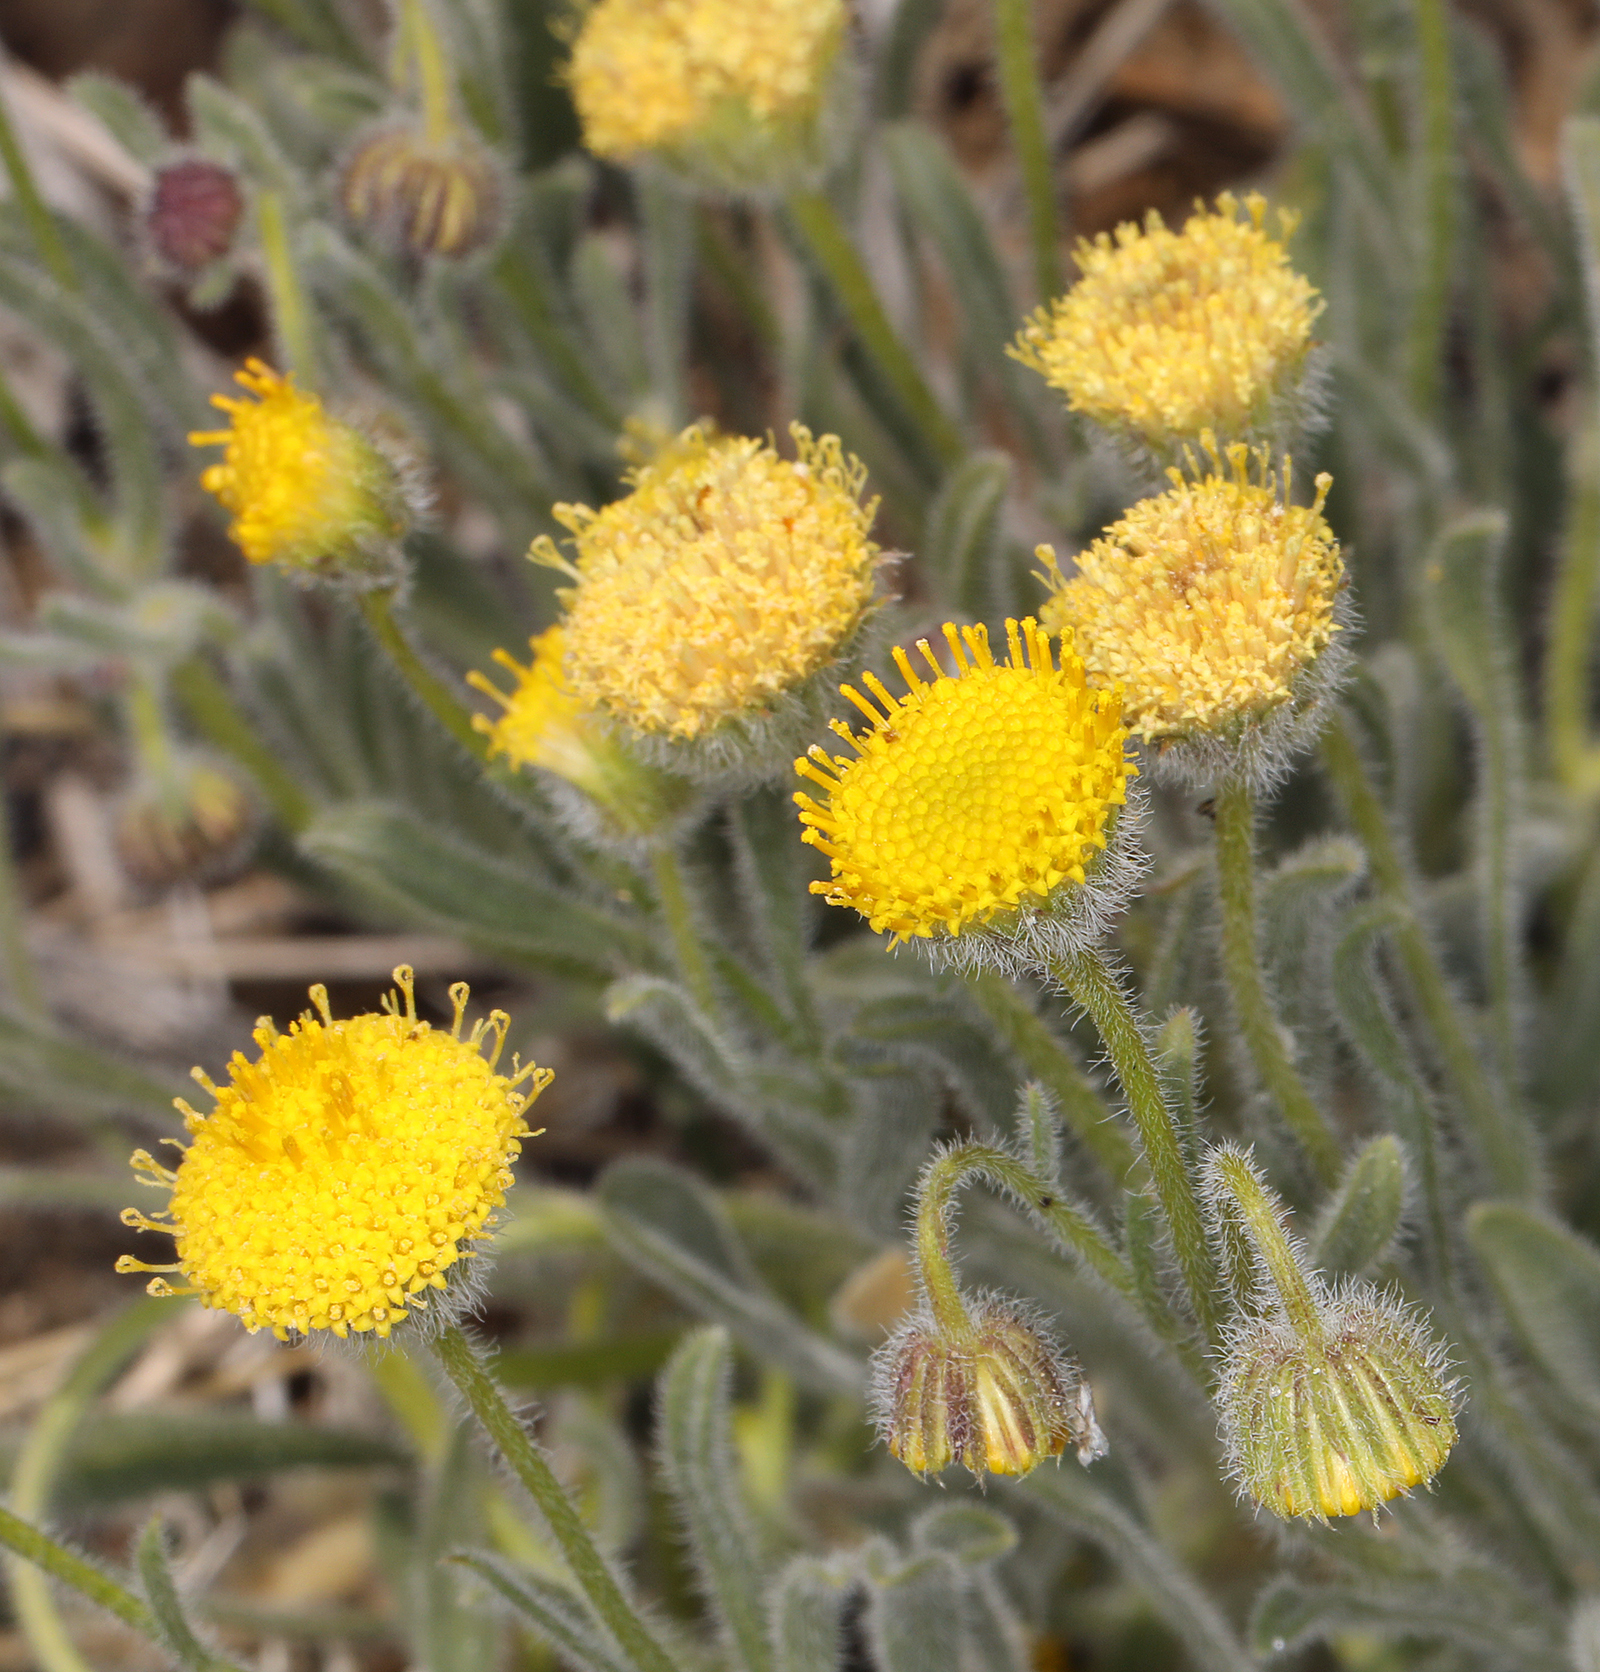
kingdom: Plantae
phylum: Tracheophyta
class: Magnoliopsida
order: Asterales
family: Asteraceae
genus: Erigeron
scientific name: Erigeron aphanactis
